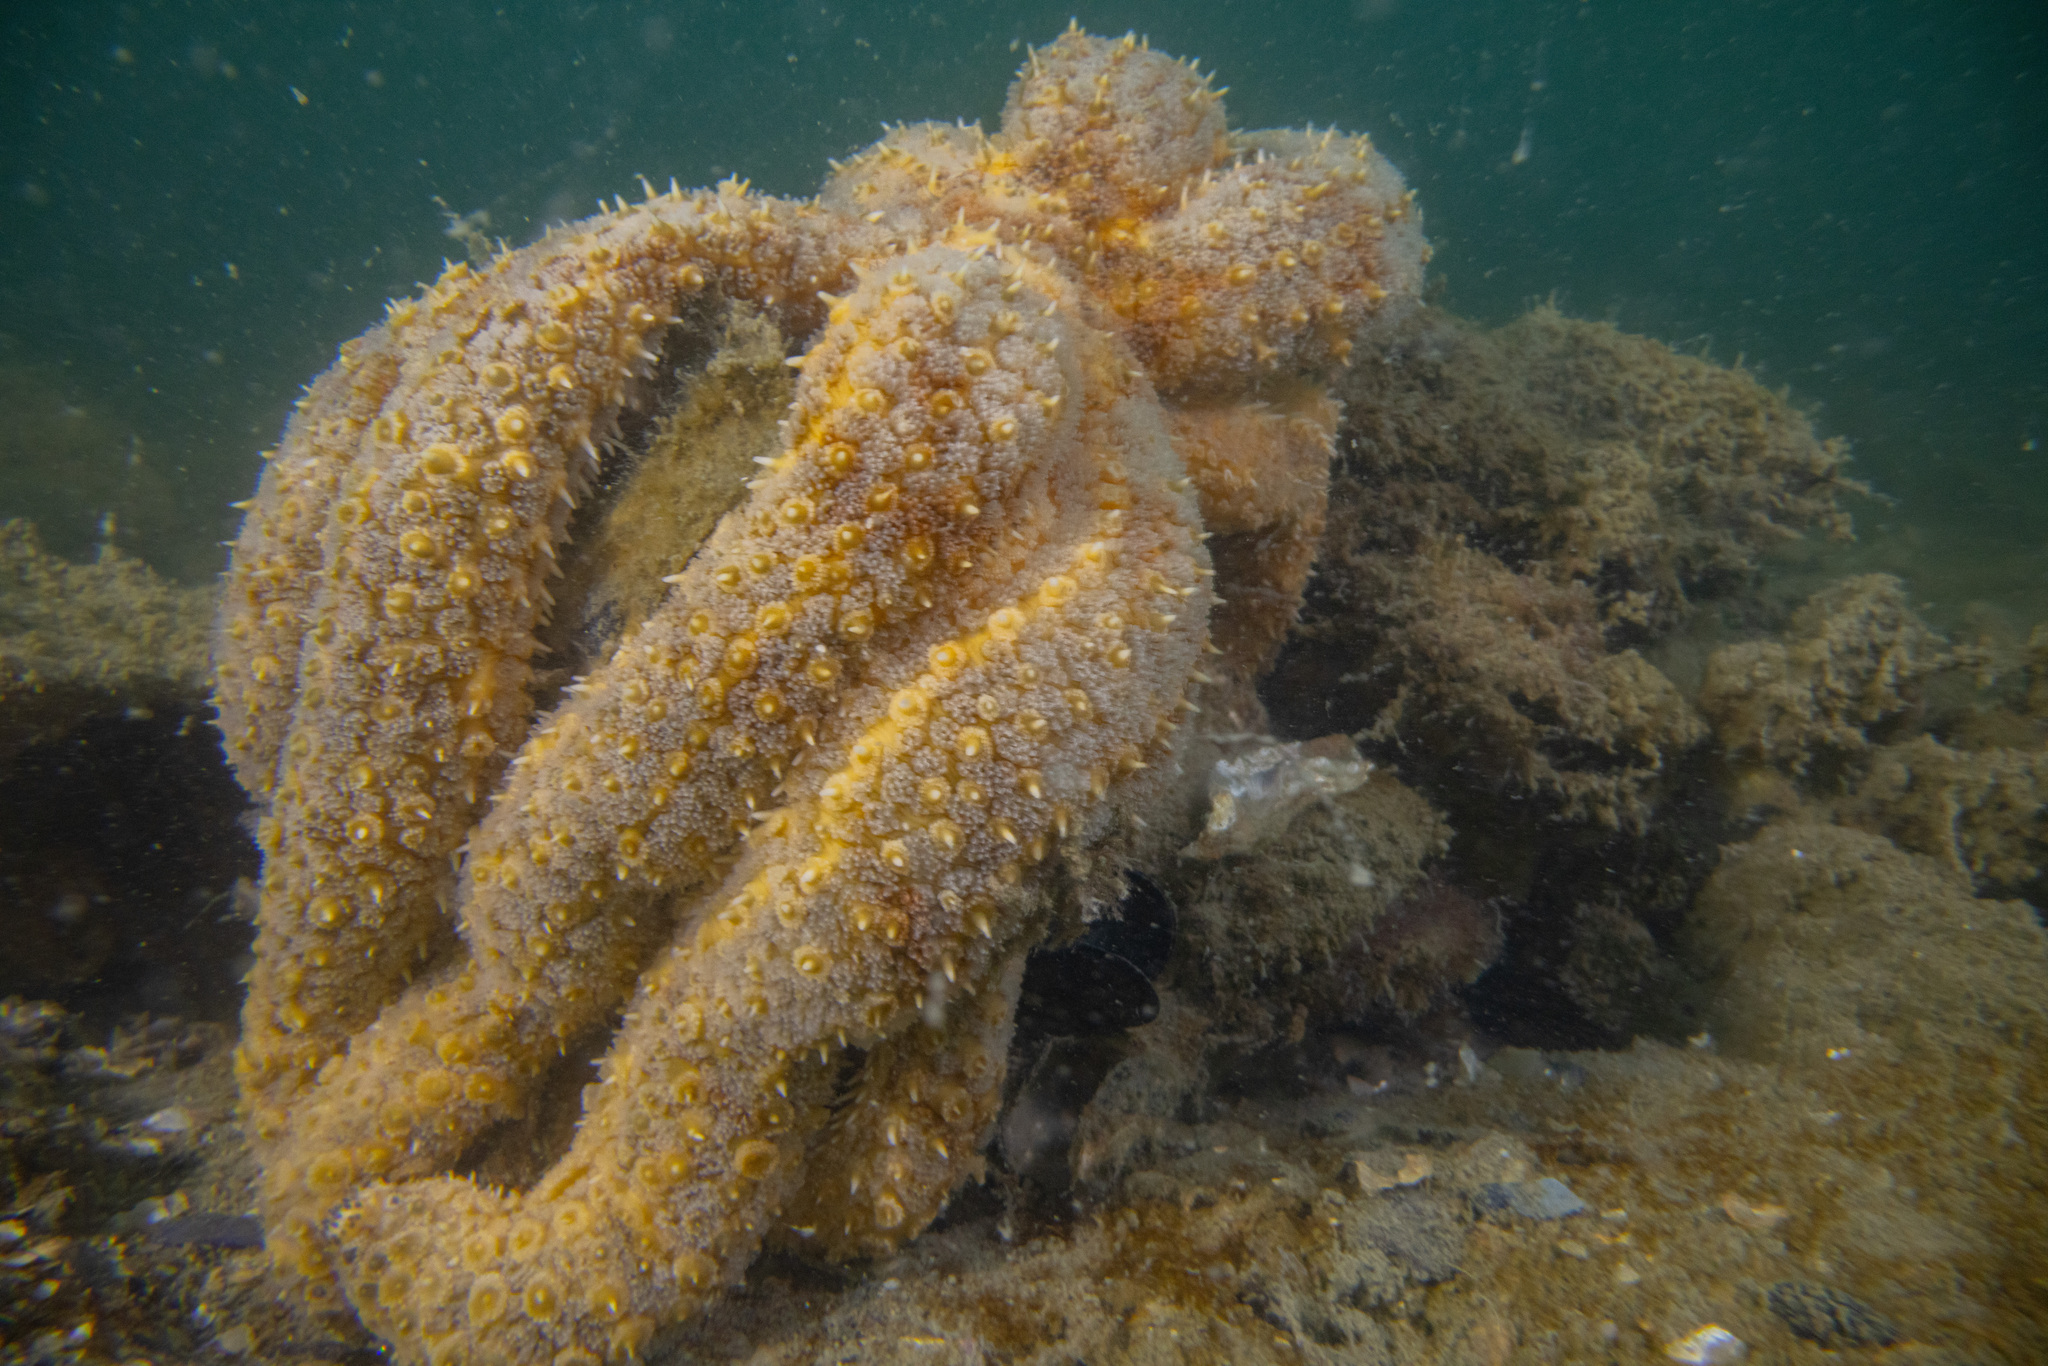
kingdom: Animalia
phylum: Echinodermata
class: Asteroidea
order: Forcipulatida
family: Asteriidae
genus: Coscinasterias
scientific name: Coscinasterias muricata
